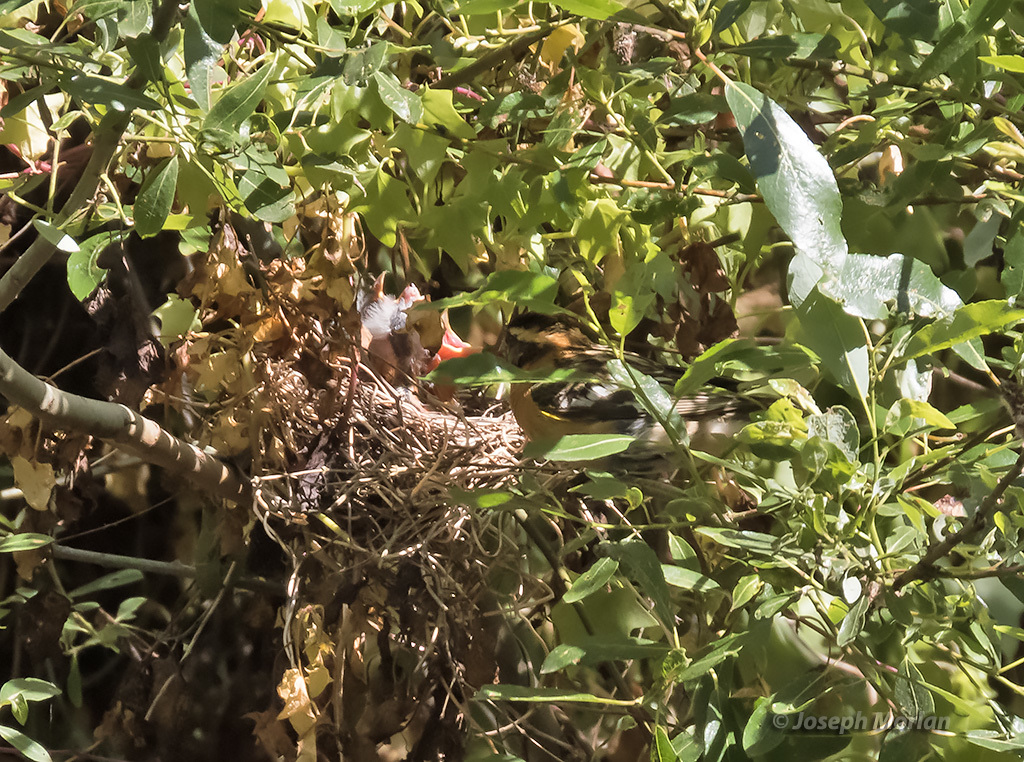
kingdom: Animalia
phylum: Chordata
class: Aves
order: Passeriformes
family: Cardinalidae
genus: Pheucticus
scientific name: Pheucticus melanocephalus
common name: Black-headed grosbeak
